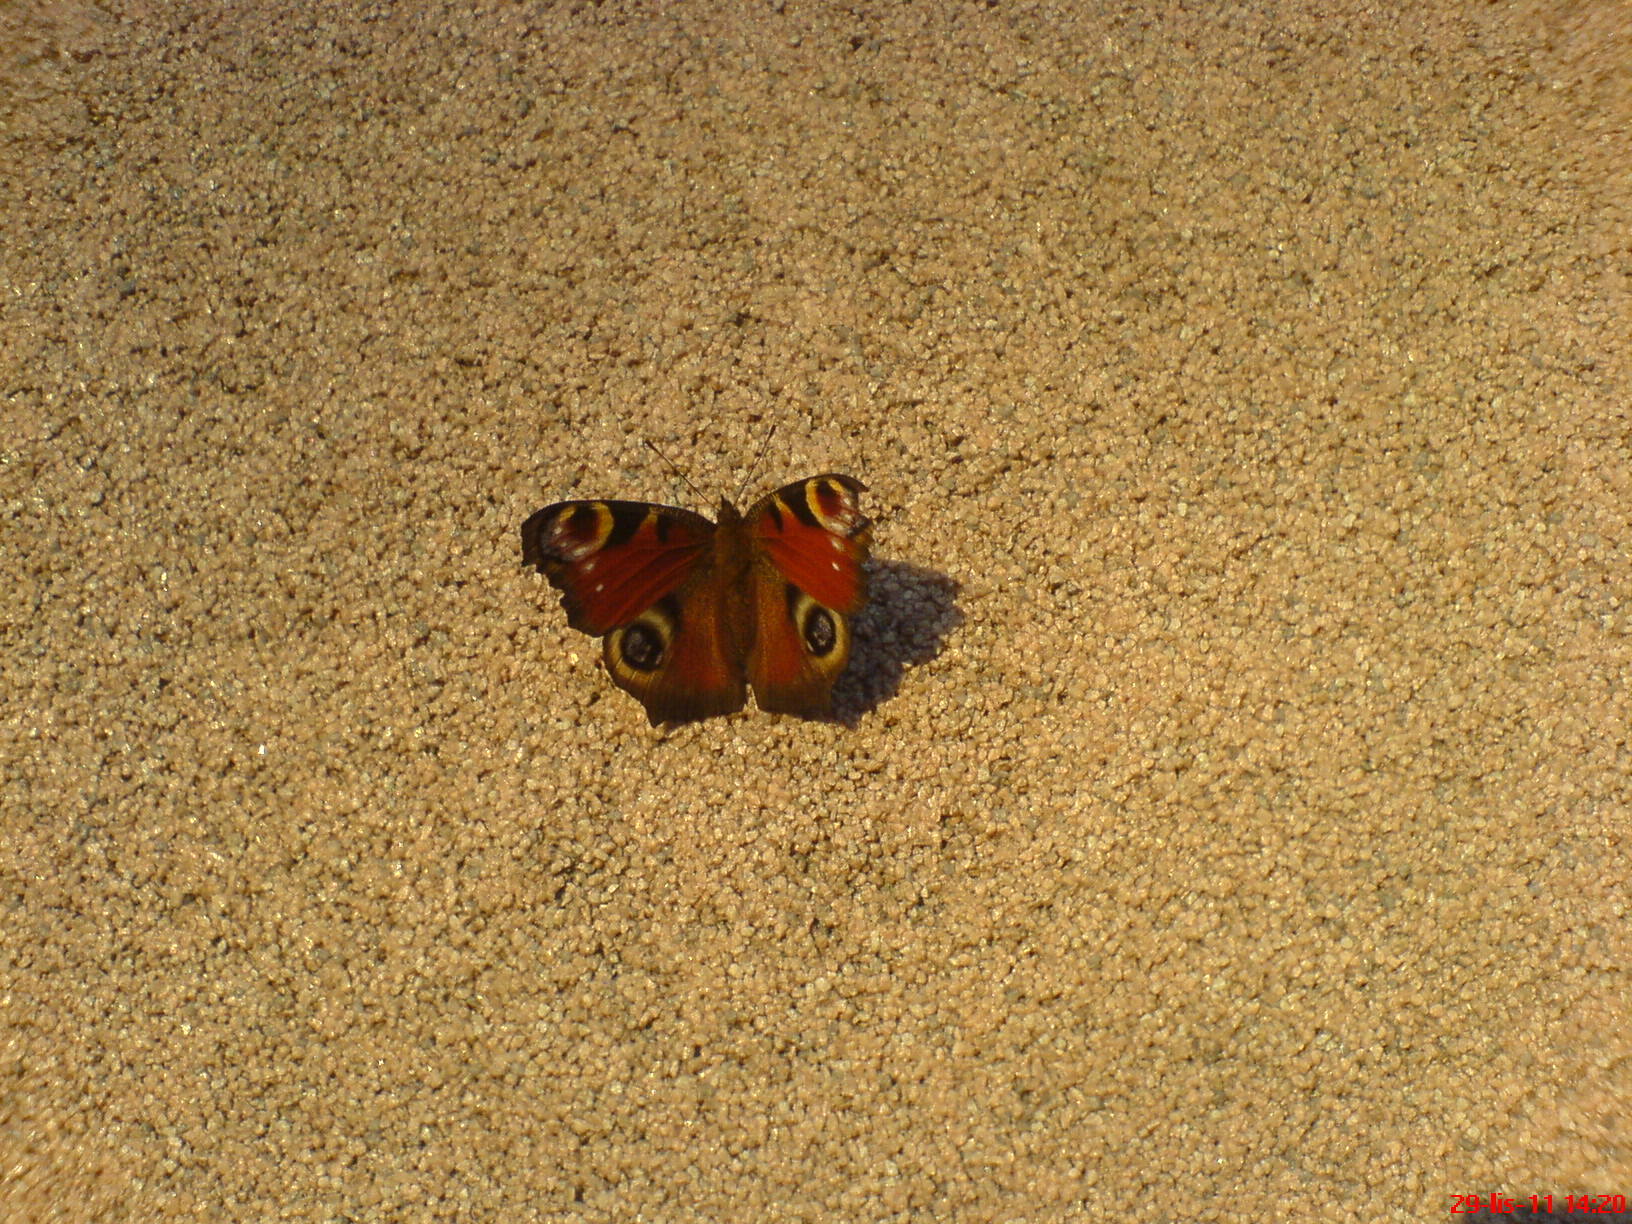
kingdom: Animalia
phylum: Arthropoda
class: Insecta
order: Lepidoptera
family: Nymphalidae
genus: Aglais
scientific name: Aglais io
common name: Peacock
